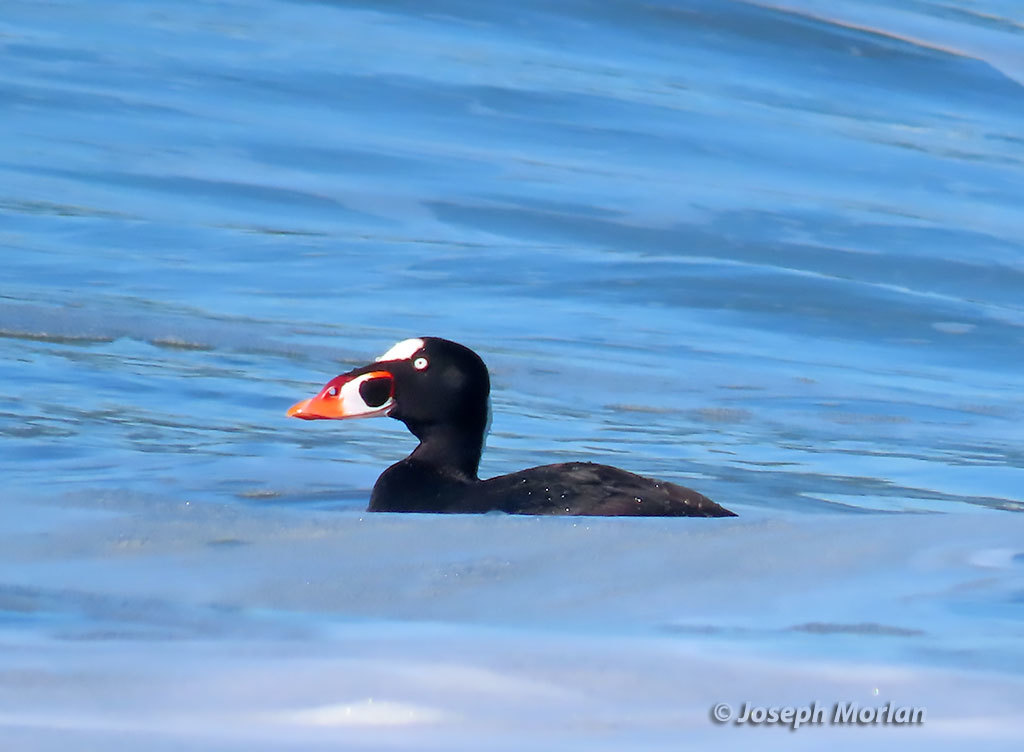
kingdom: Animalia
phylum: Chordata
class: Aves
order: Anseriformes
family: Anatidae
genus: Melanitta
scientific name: Melanitta perspicillata
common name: Surf scoter
